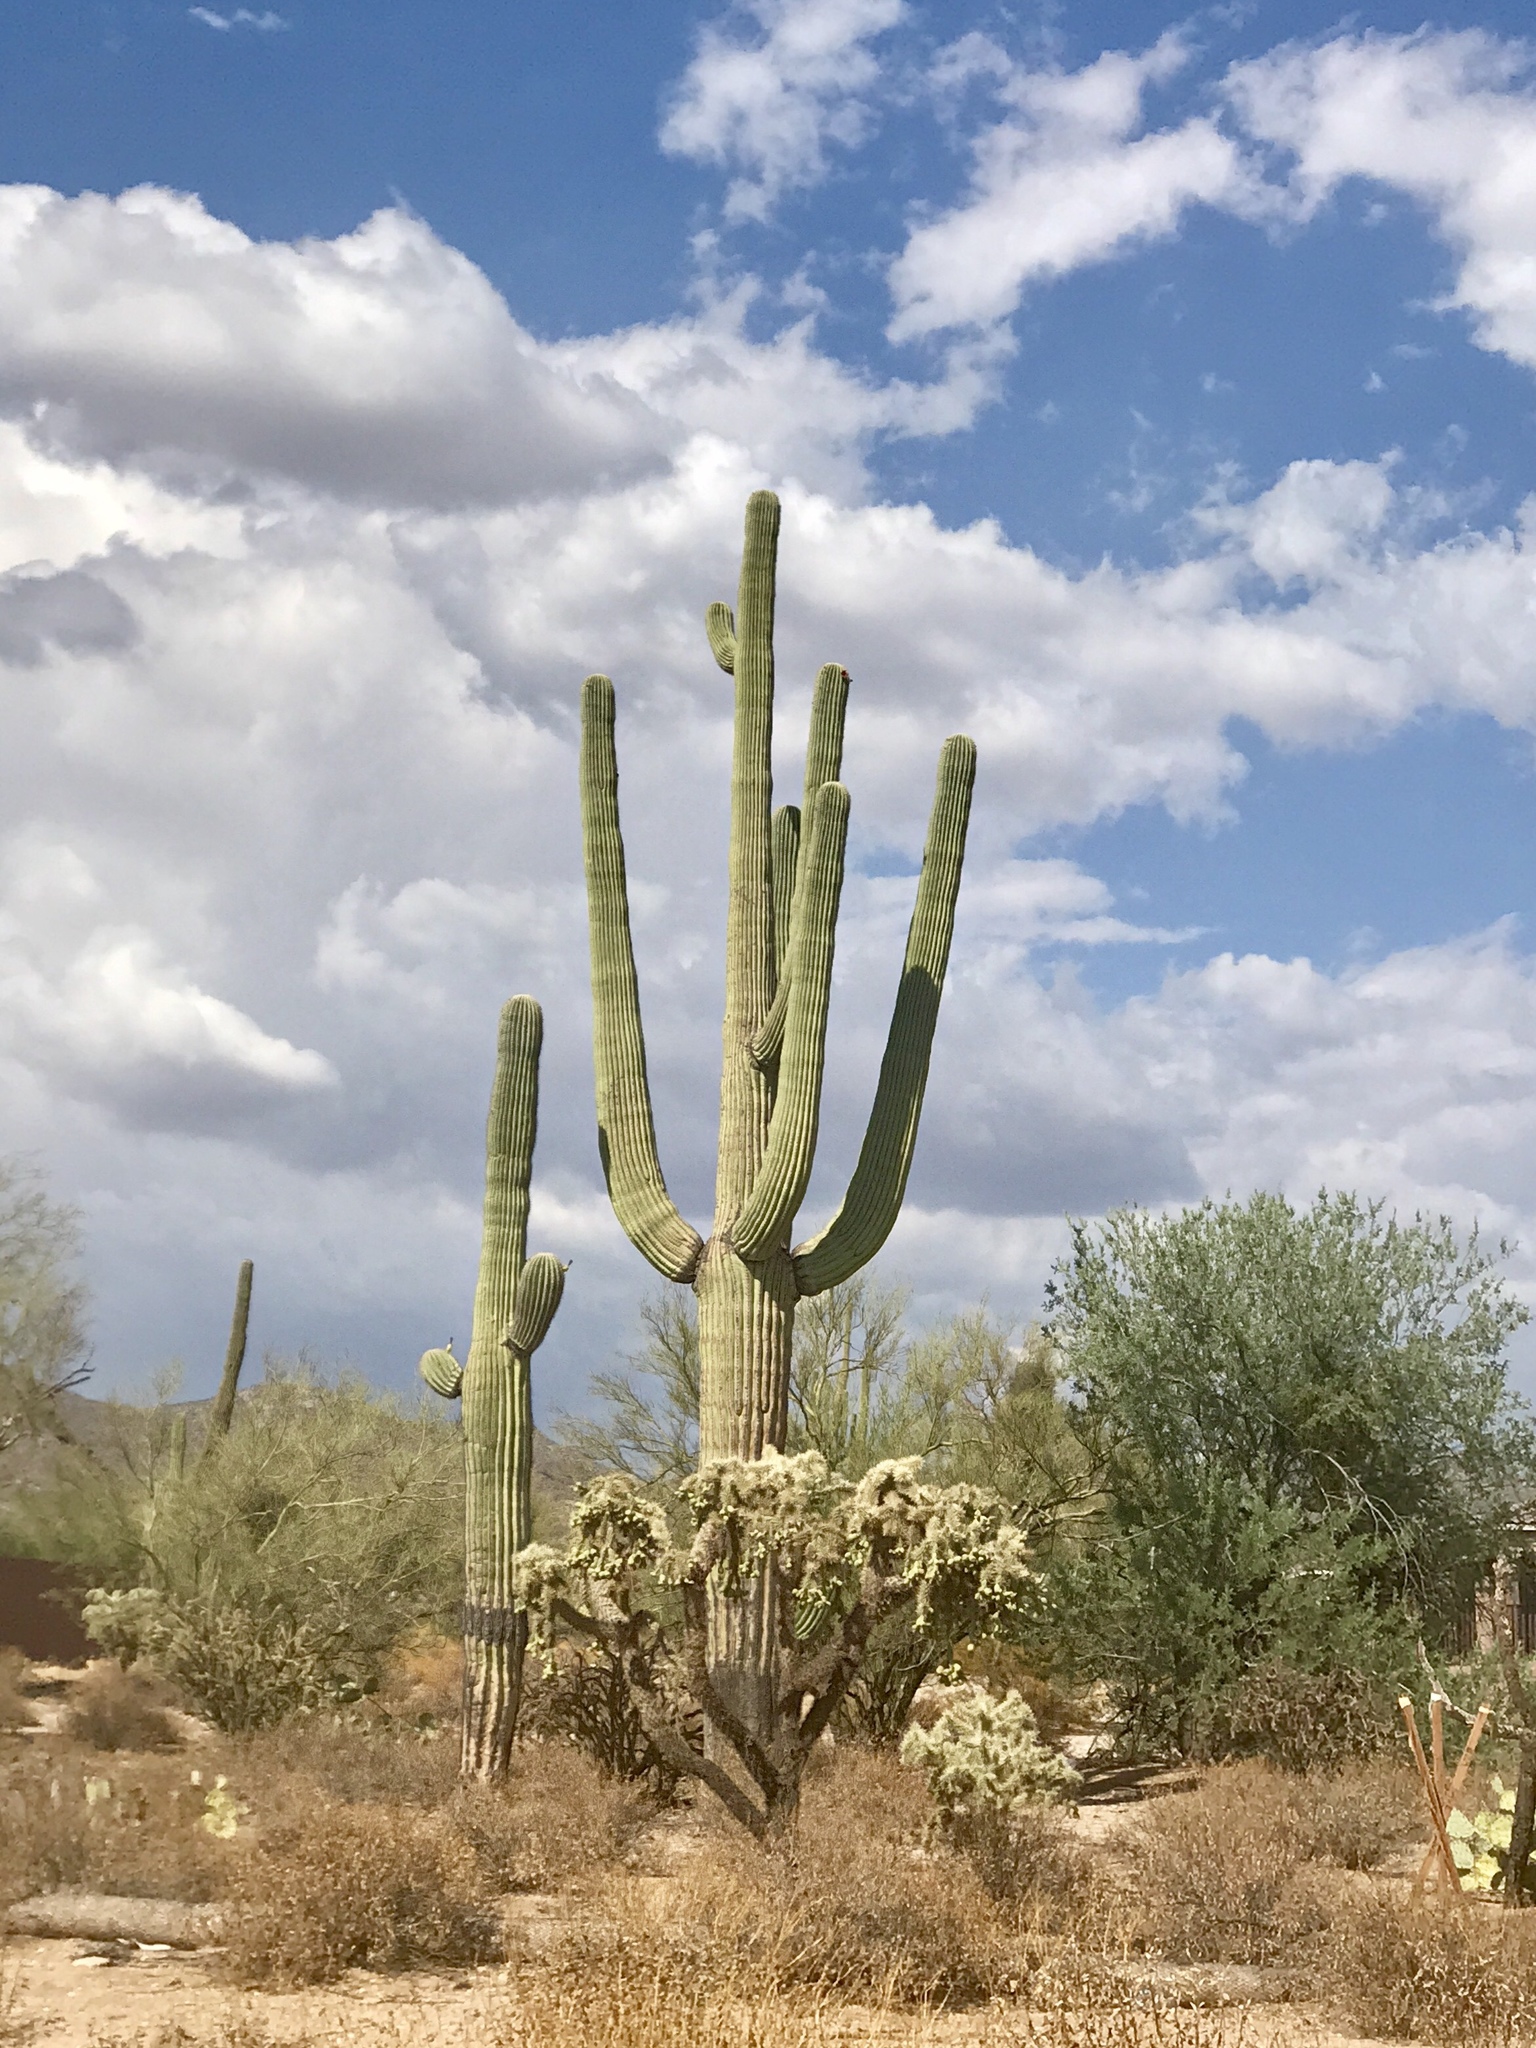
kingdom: Plantae
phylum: Tracheophyta
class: Magnoliopsida
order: Caryophyllales
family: Cactaceae
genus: Carnegiea
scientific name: Carnegiea gigantea
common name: Saguaro
